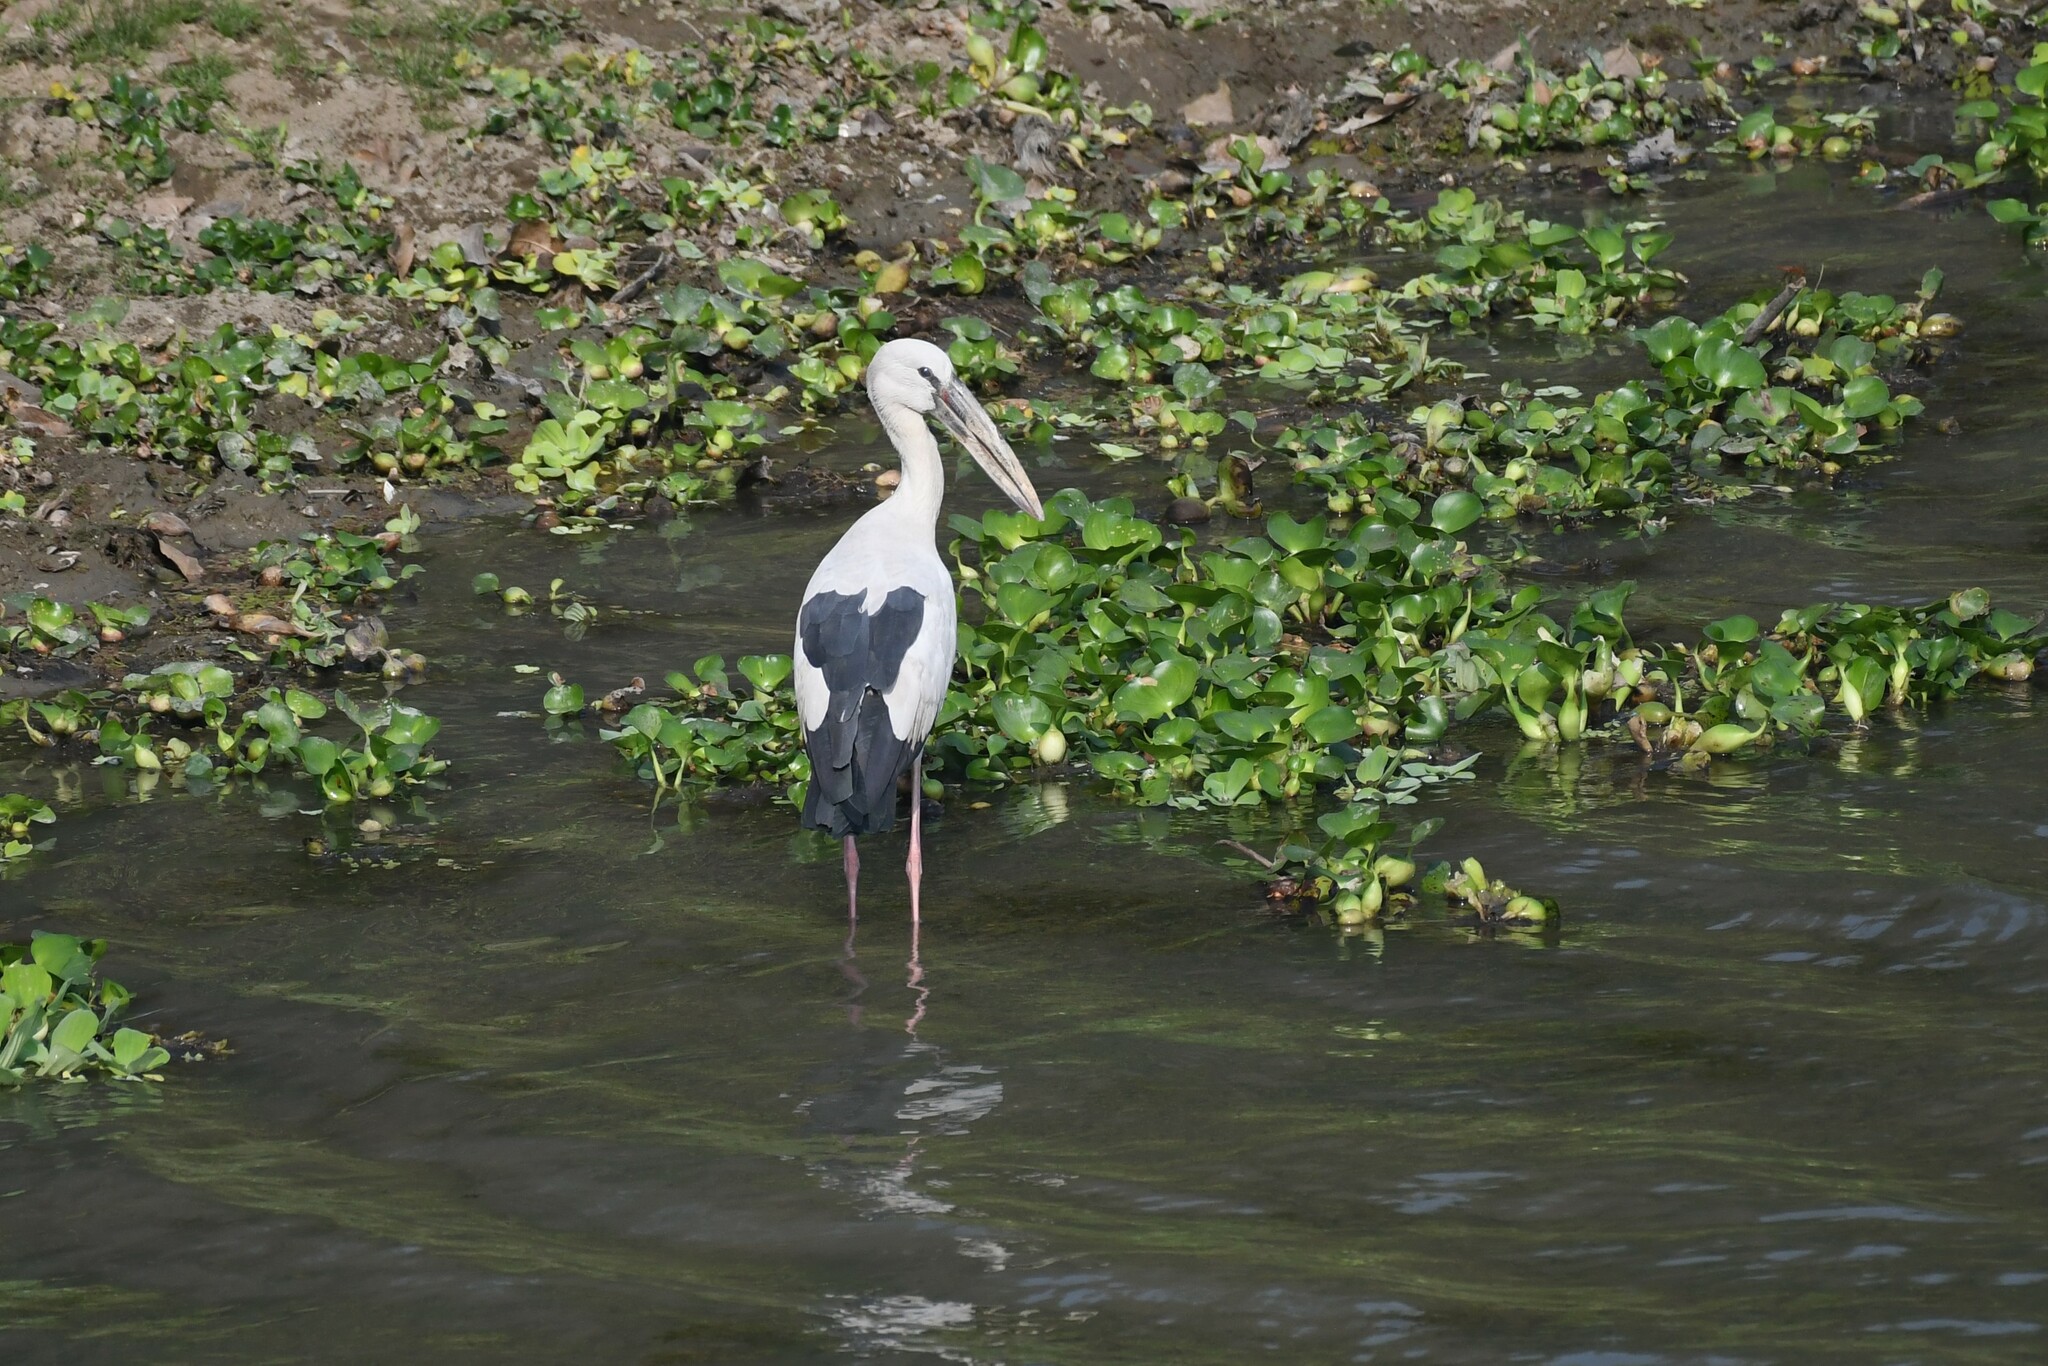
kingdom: Animalia
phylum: Chordata
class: Aves
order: Ciconiiformes
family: Ciconiidae
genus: Anastomus
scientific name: Anastomus oscitans
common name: Asian openbill
